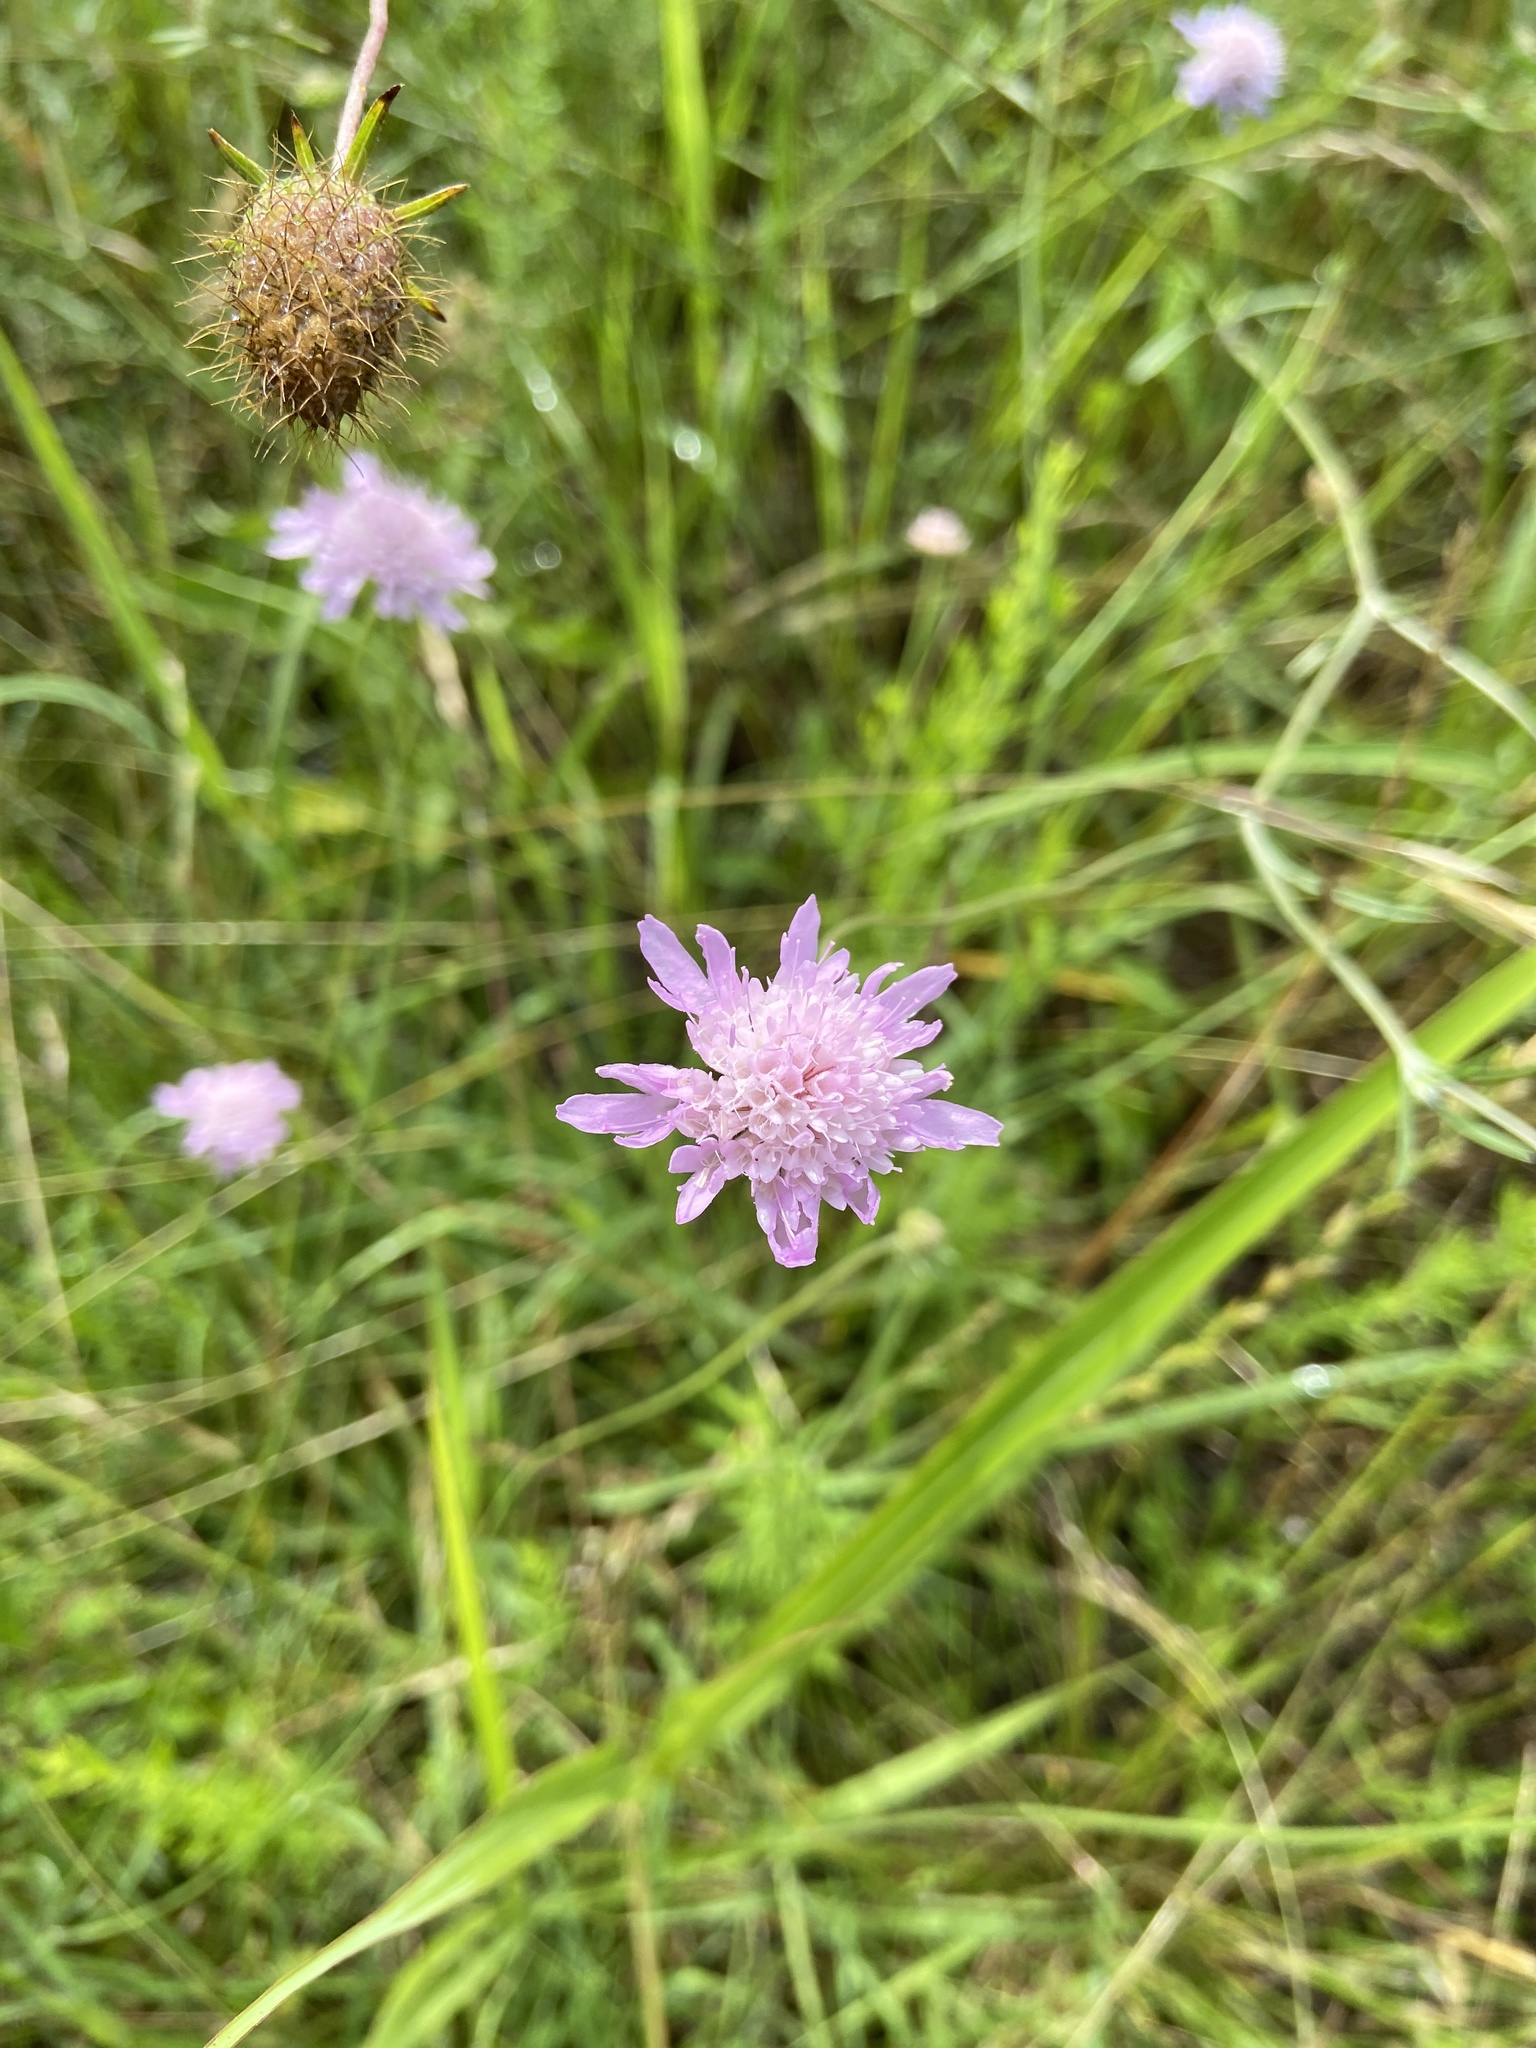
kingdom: Plantae
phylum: Tracheophyta
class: Magnoliopsida
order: Dipsacales
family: Caprifoliaceae
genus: Sixalix
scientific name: Sixalix atropurpurea
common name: Sweet scabious
